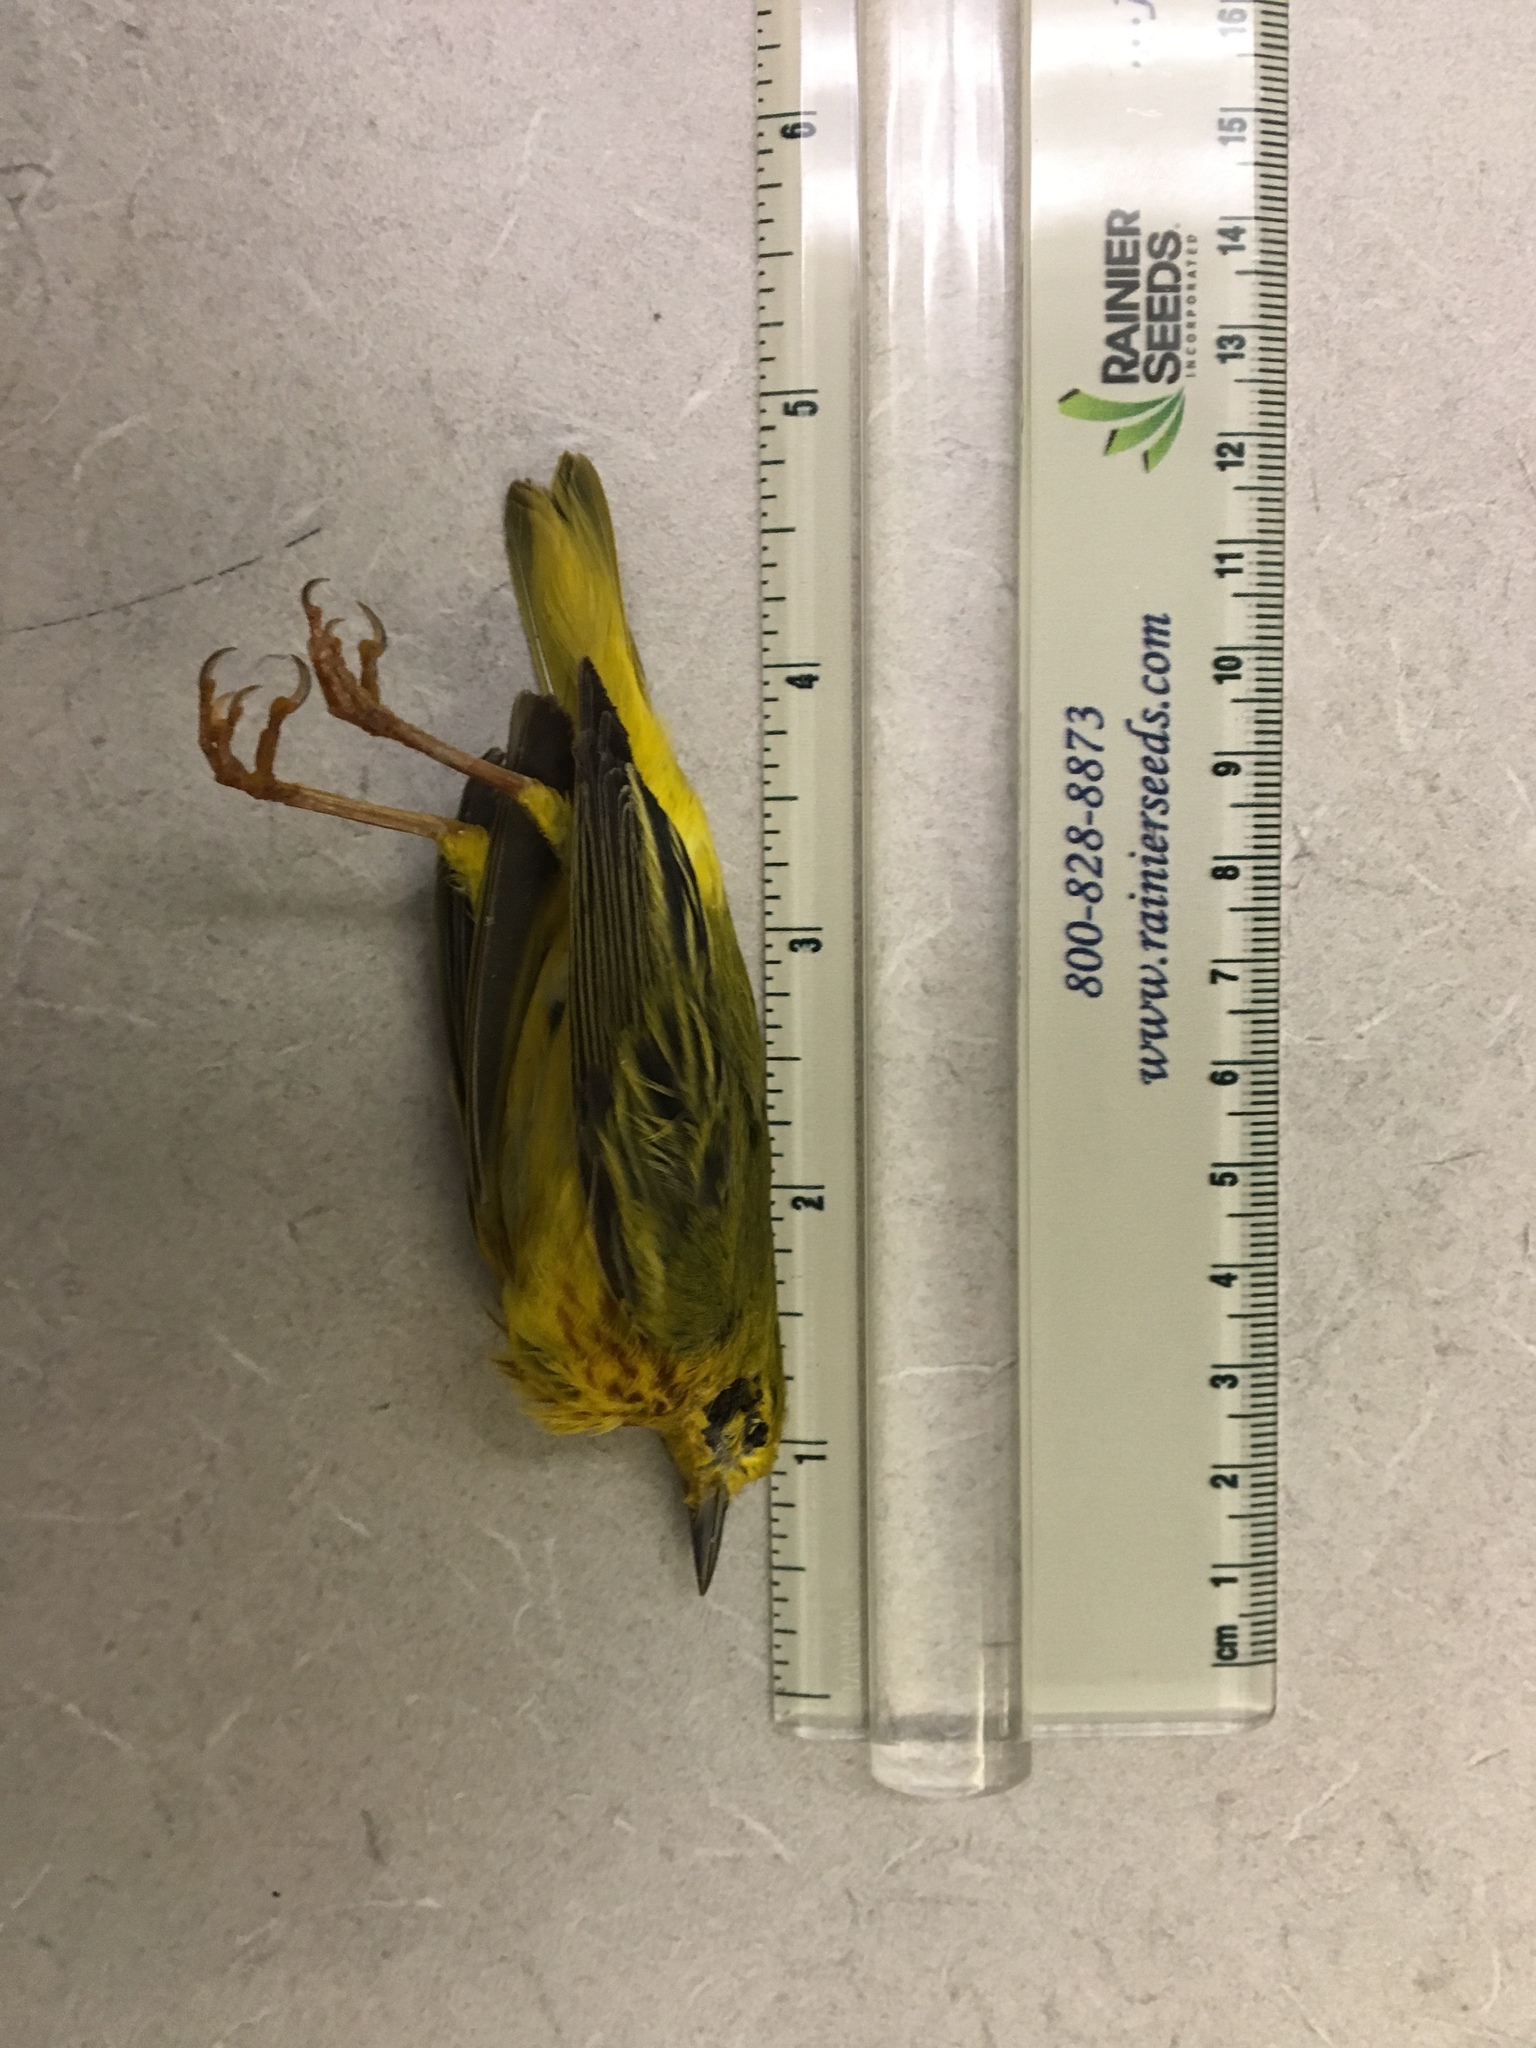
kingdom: Animalia
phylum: Chordata
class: Aves
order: Passeriformes
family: Parulidae
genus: Setophaga
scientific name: Setophaga petechia
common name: Yellow warbler
